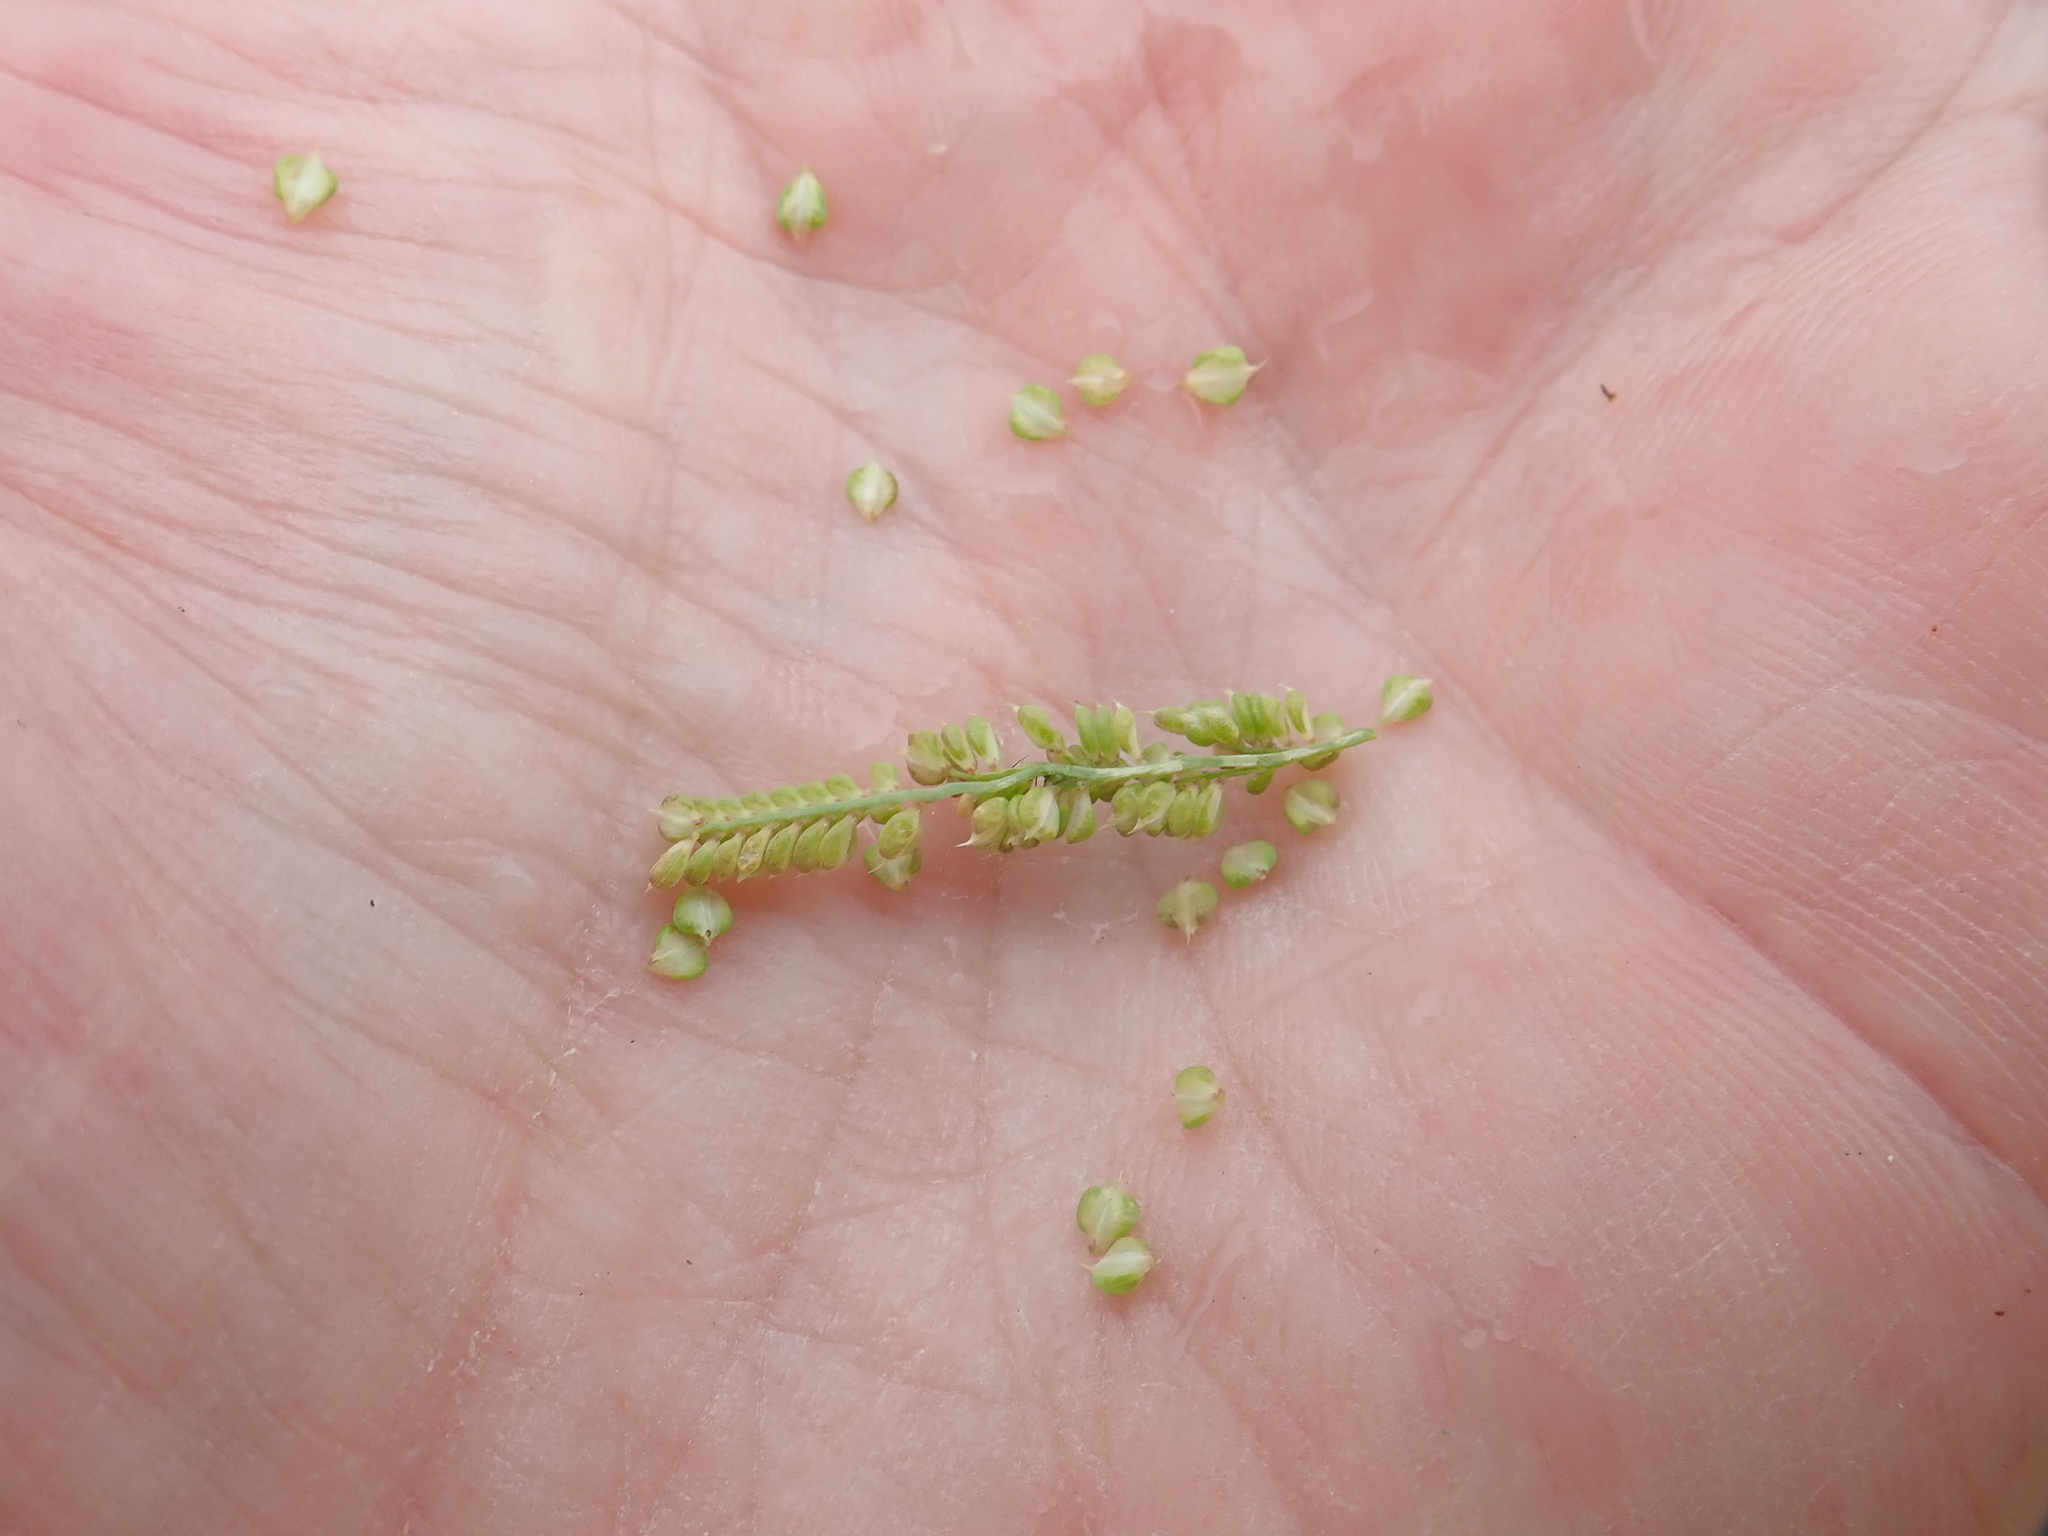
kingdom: Plantae
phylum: Tracheophyta
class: Liliopsida
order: Poales
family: Poaceae
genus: Beckmannia
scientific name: Beckmannia syzigachne
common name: American slough-grass
